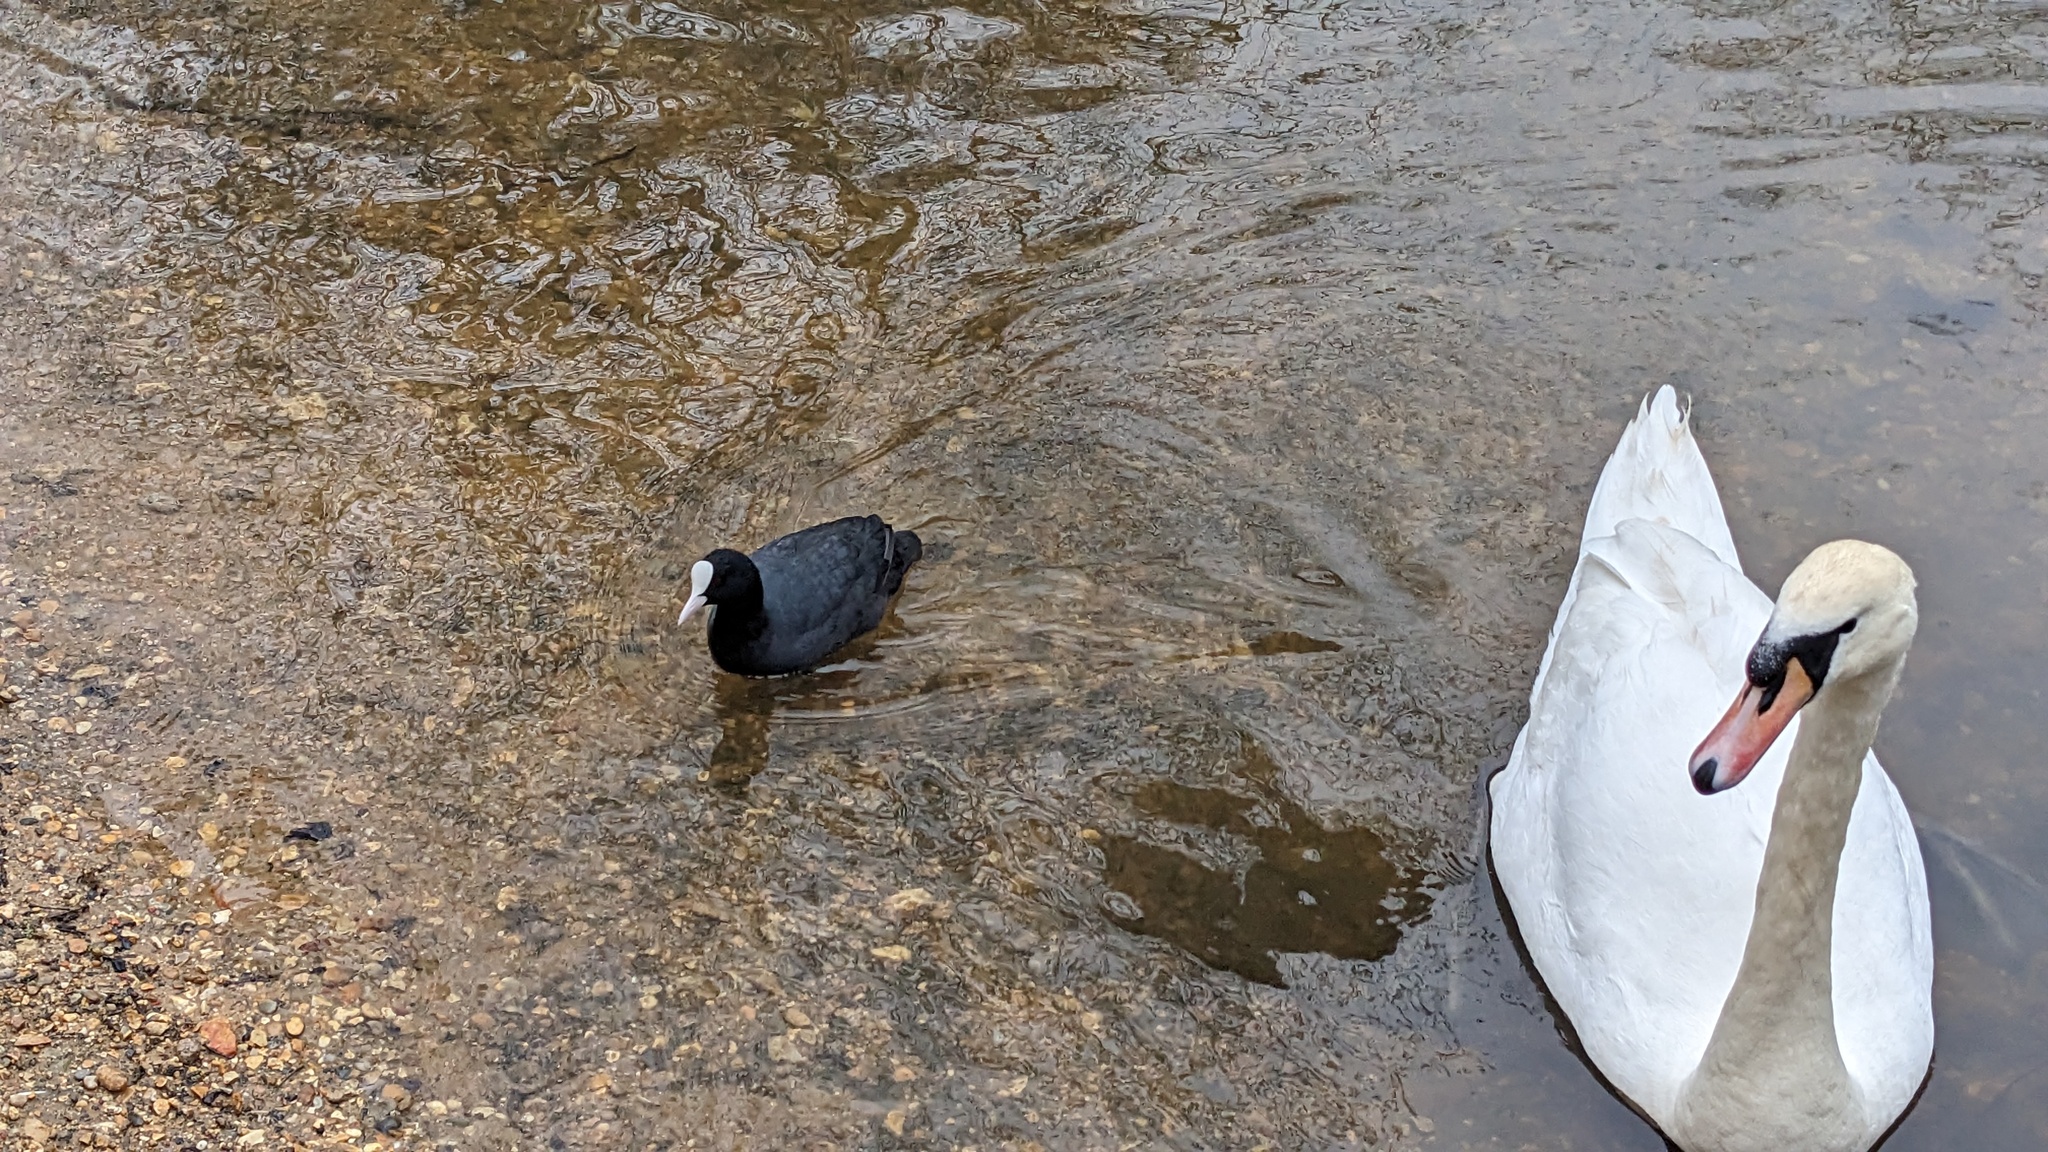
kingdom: Animalia
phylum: Chordata
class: Aves
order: Gruiformes
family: Rallidae
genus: Fulica
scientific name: Fulica atra
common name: Eurasian coot
